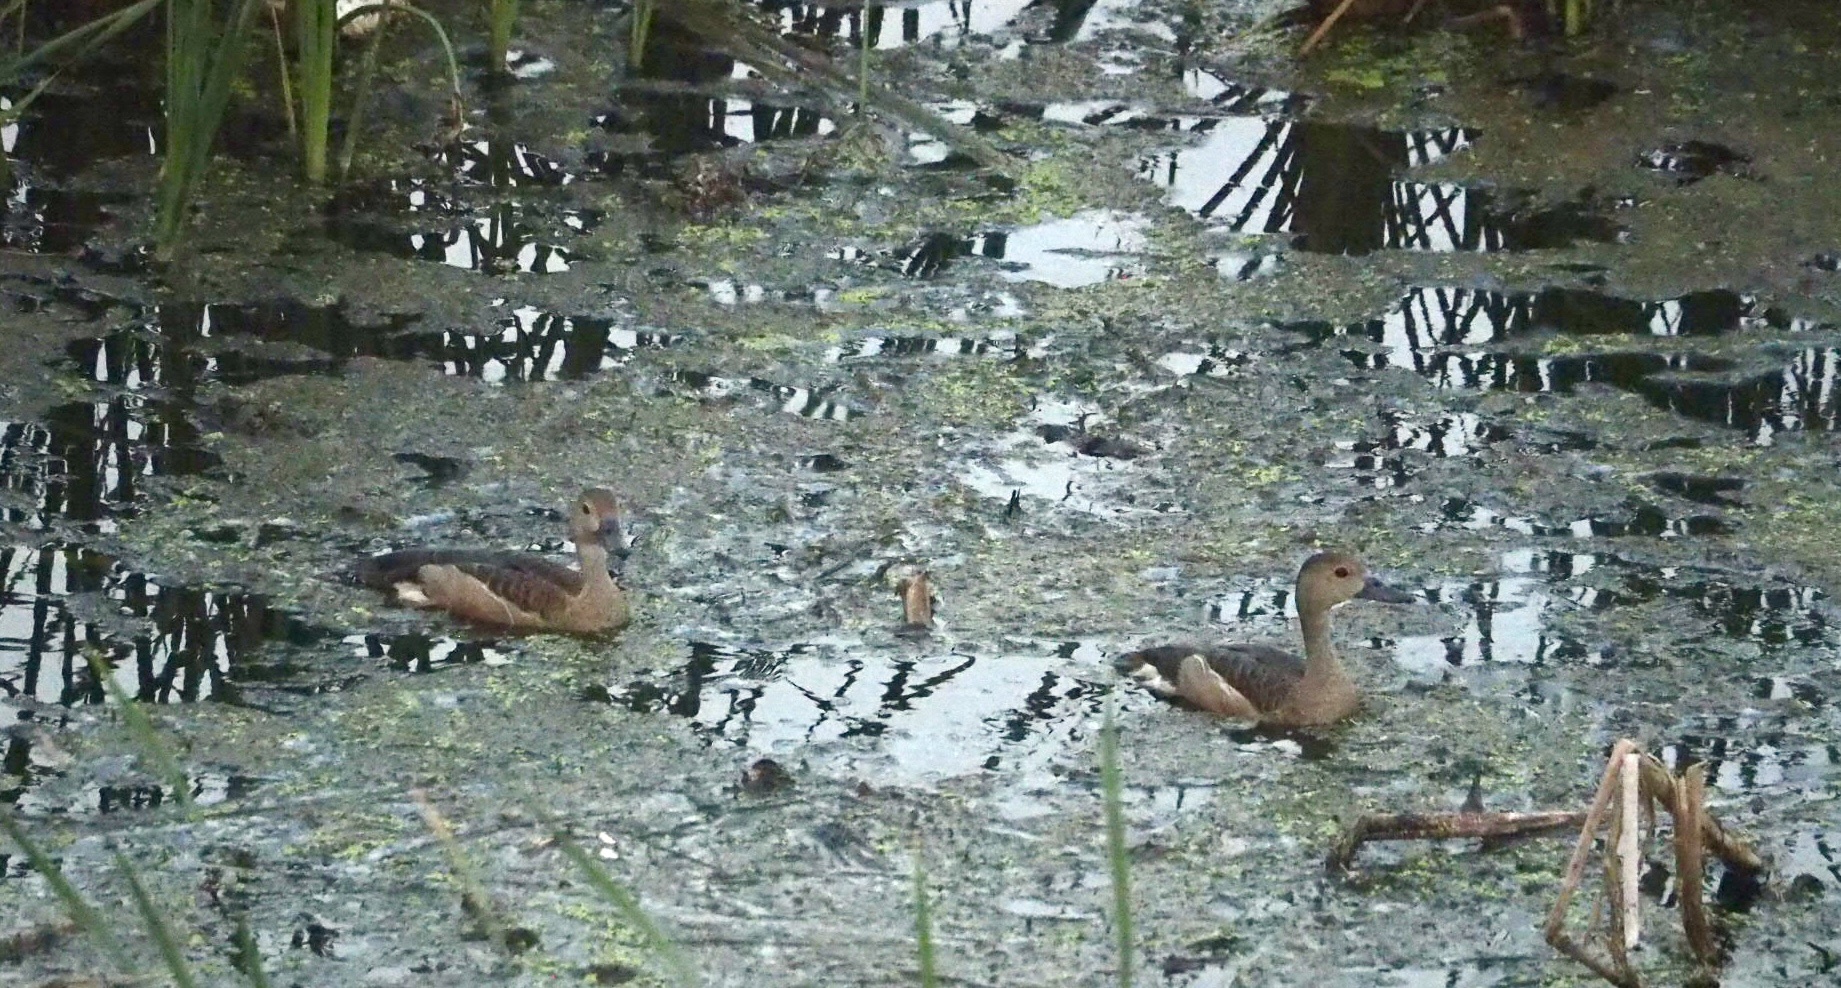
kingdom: Animalia
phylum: Chordata
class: Aves
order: Anseriformes
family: Anatidae
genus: Dendrocygna
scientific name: Dendrocygna javanica
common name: Lesser whistling-duck
